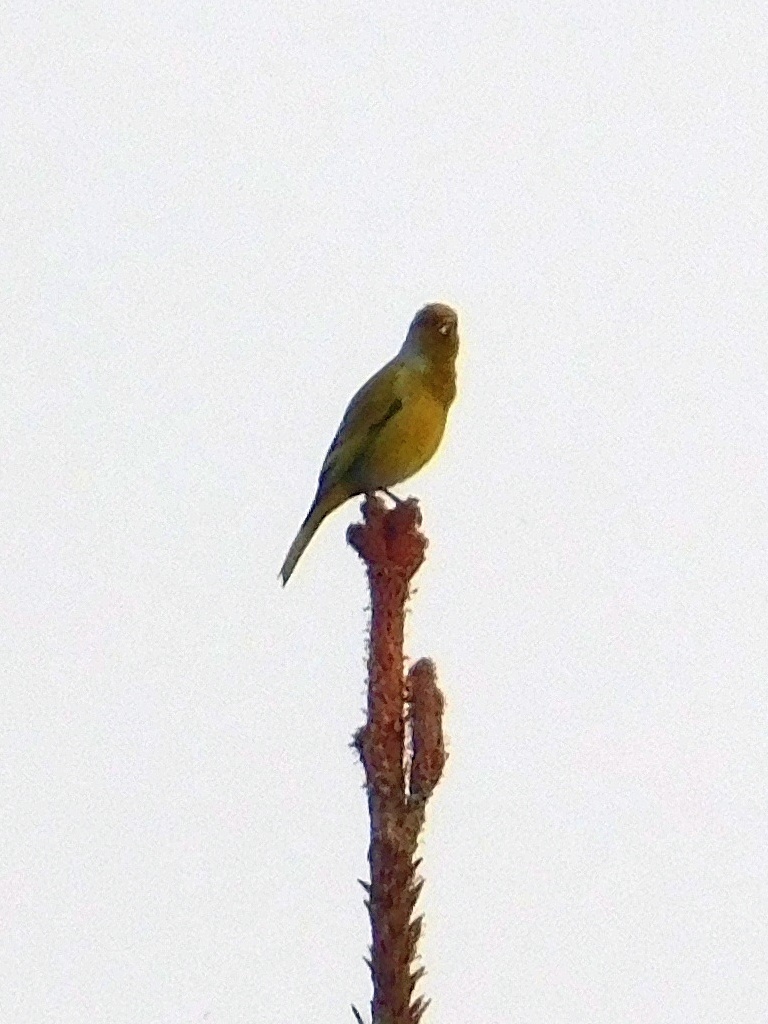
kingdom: Animalia
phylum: Chordata
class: Aves
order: Passeriformes
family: Fringillidae
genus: Serinus
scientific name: Serinus canicollis
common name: Cape canary
